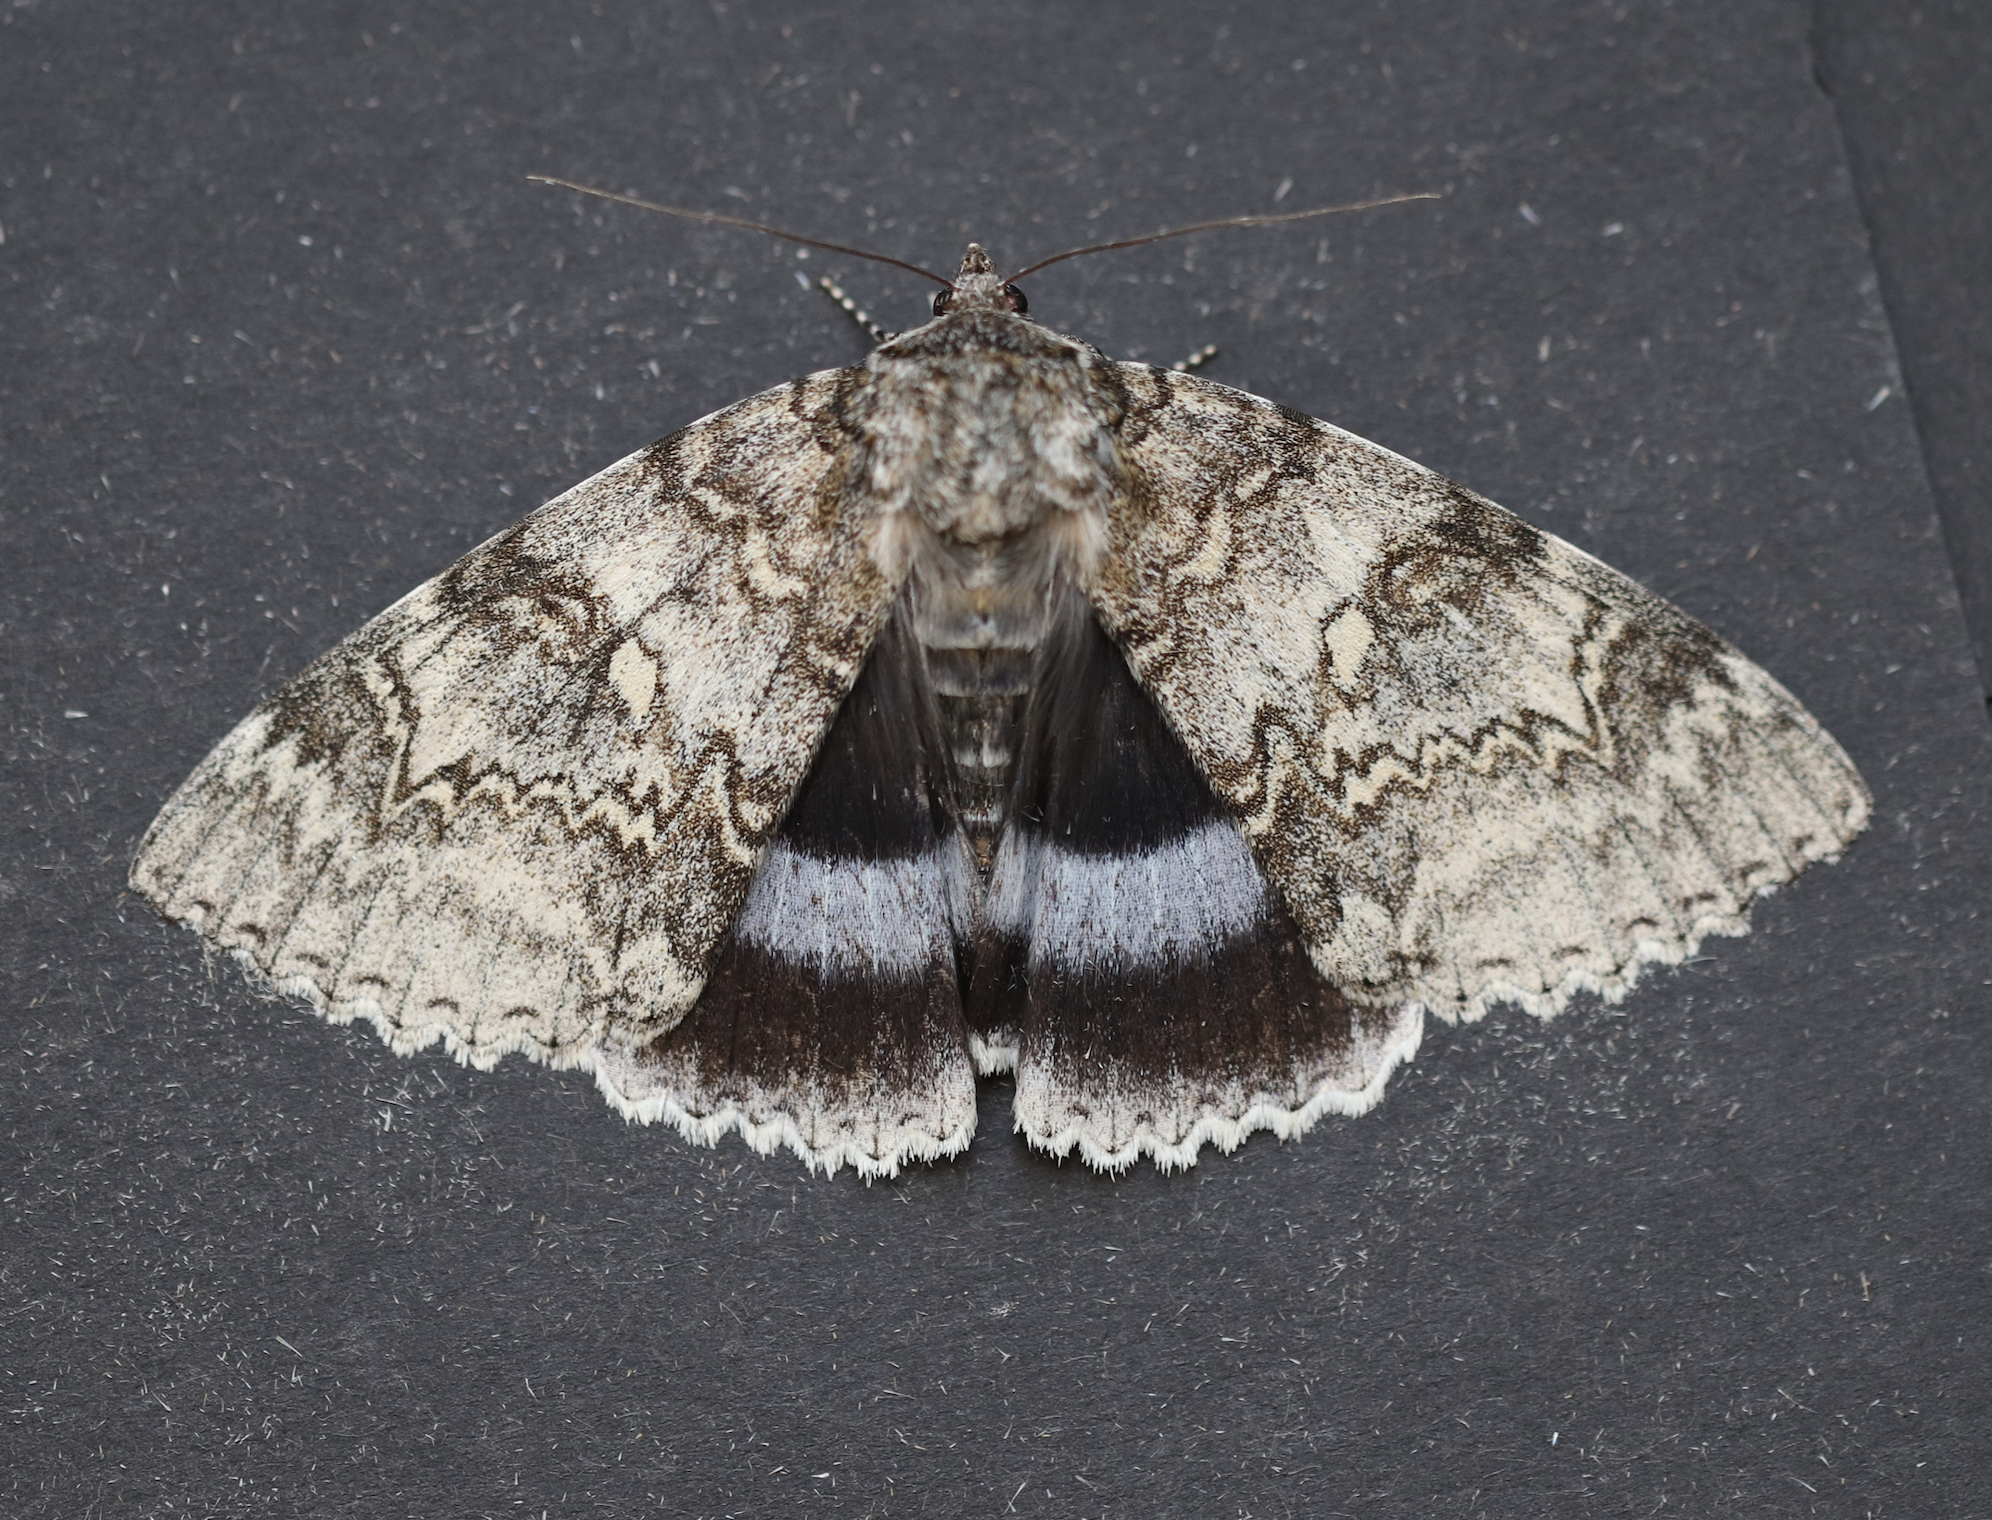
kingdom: Animalia
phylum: Arthropoda
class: Insecta
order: Lepidoptera
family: Erebidae
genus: Catocala
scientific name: Catocala fraxini
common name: Clifden nonpareil
